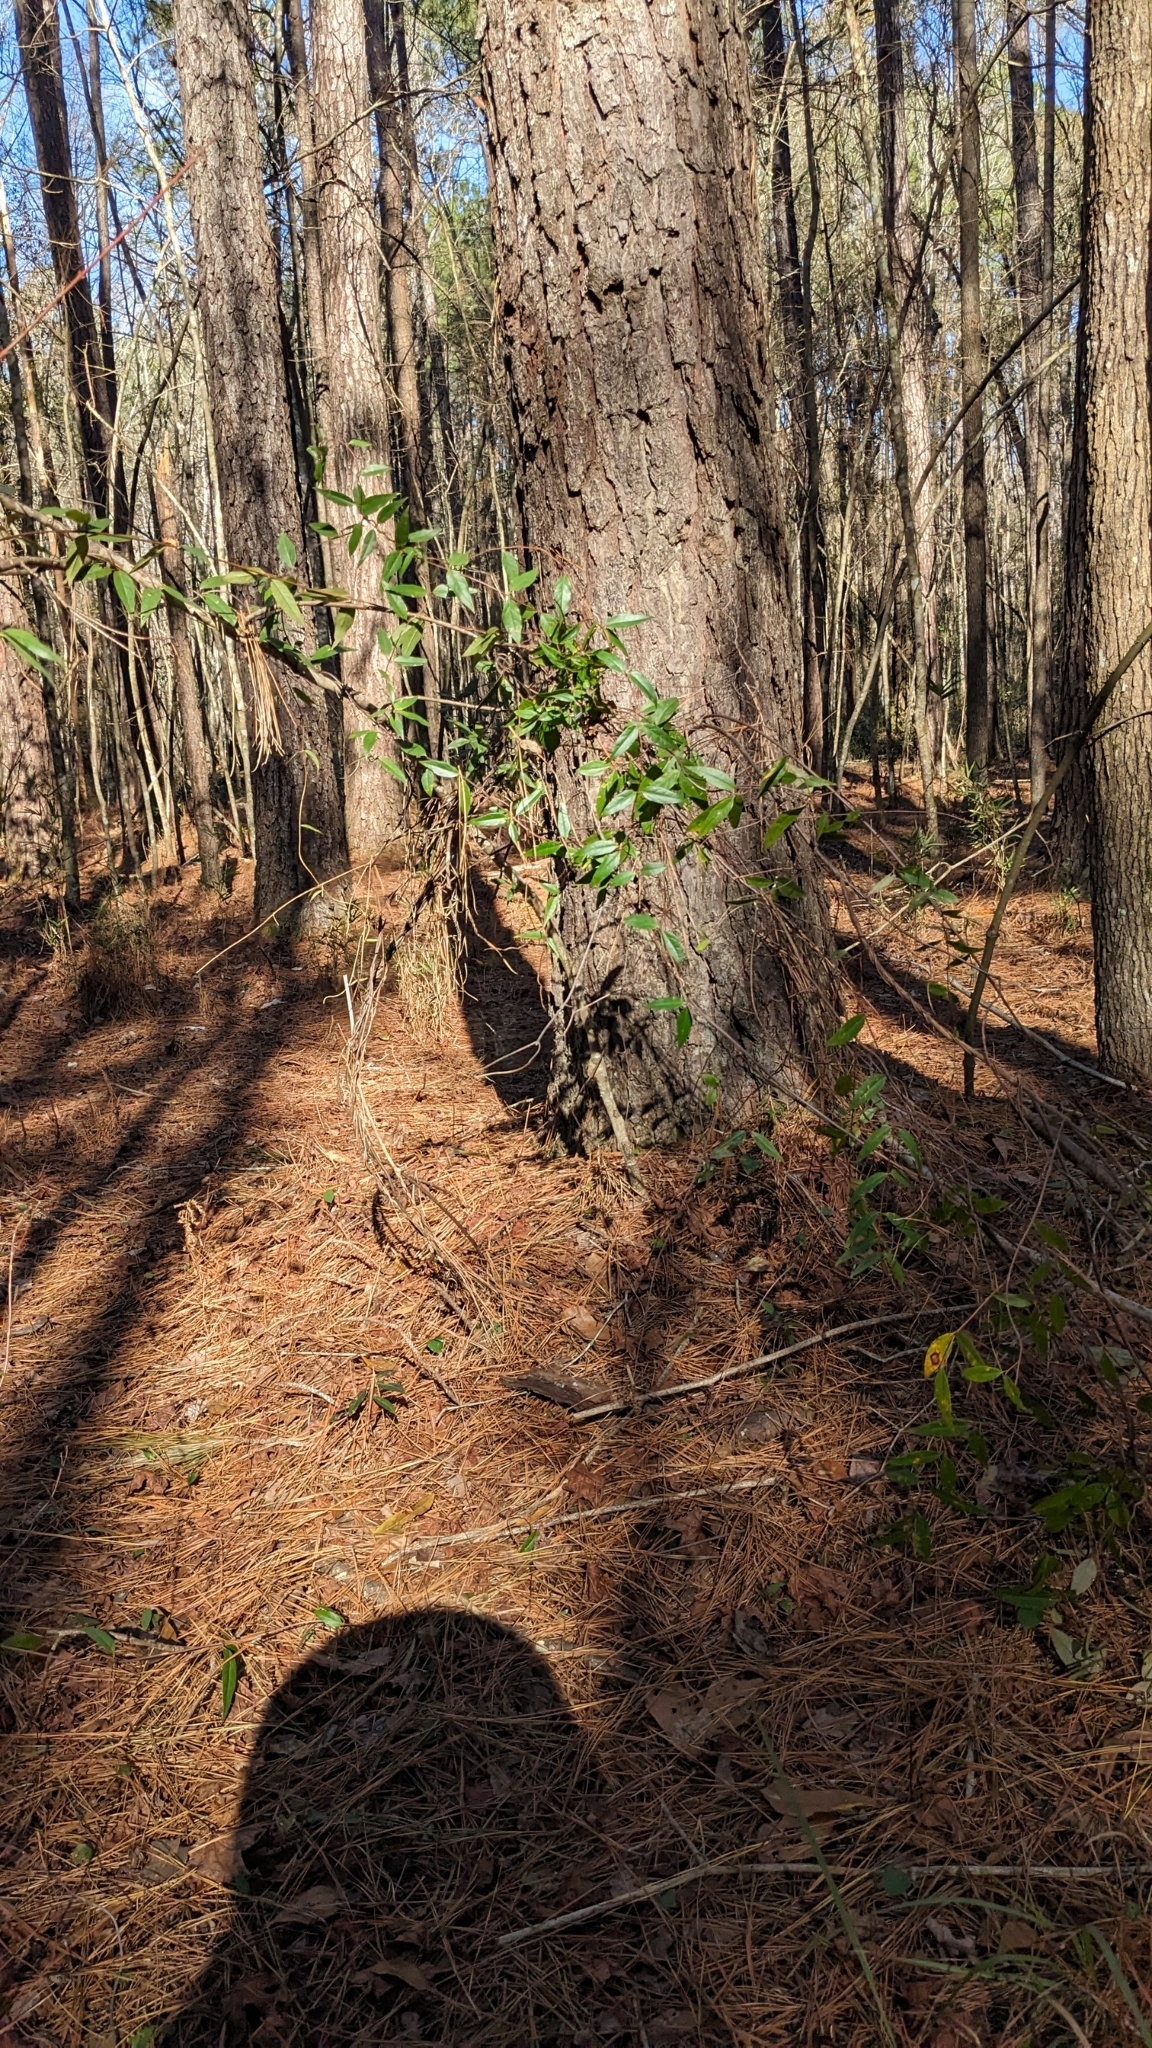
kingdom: Plantae
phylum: Tracheophyta
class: Magnoliopsida
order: Gentianales
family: Gelsemiaceae
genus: Gelsemium
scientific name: Gelsemium sempervirens
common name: Carolina-jasmine
